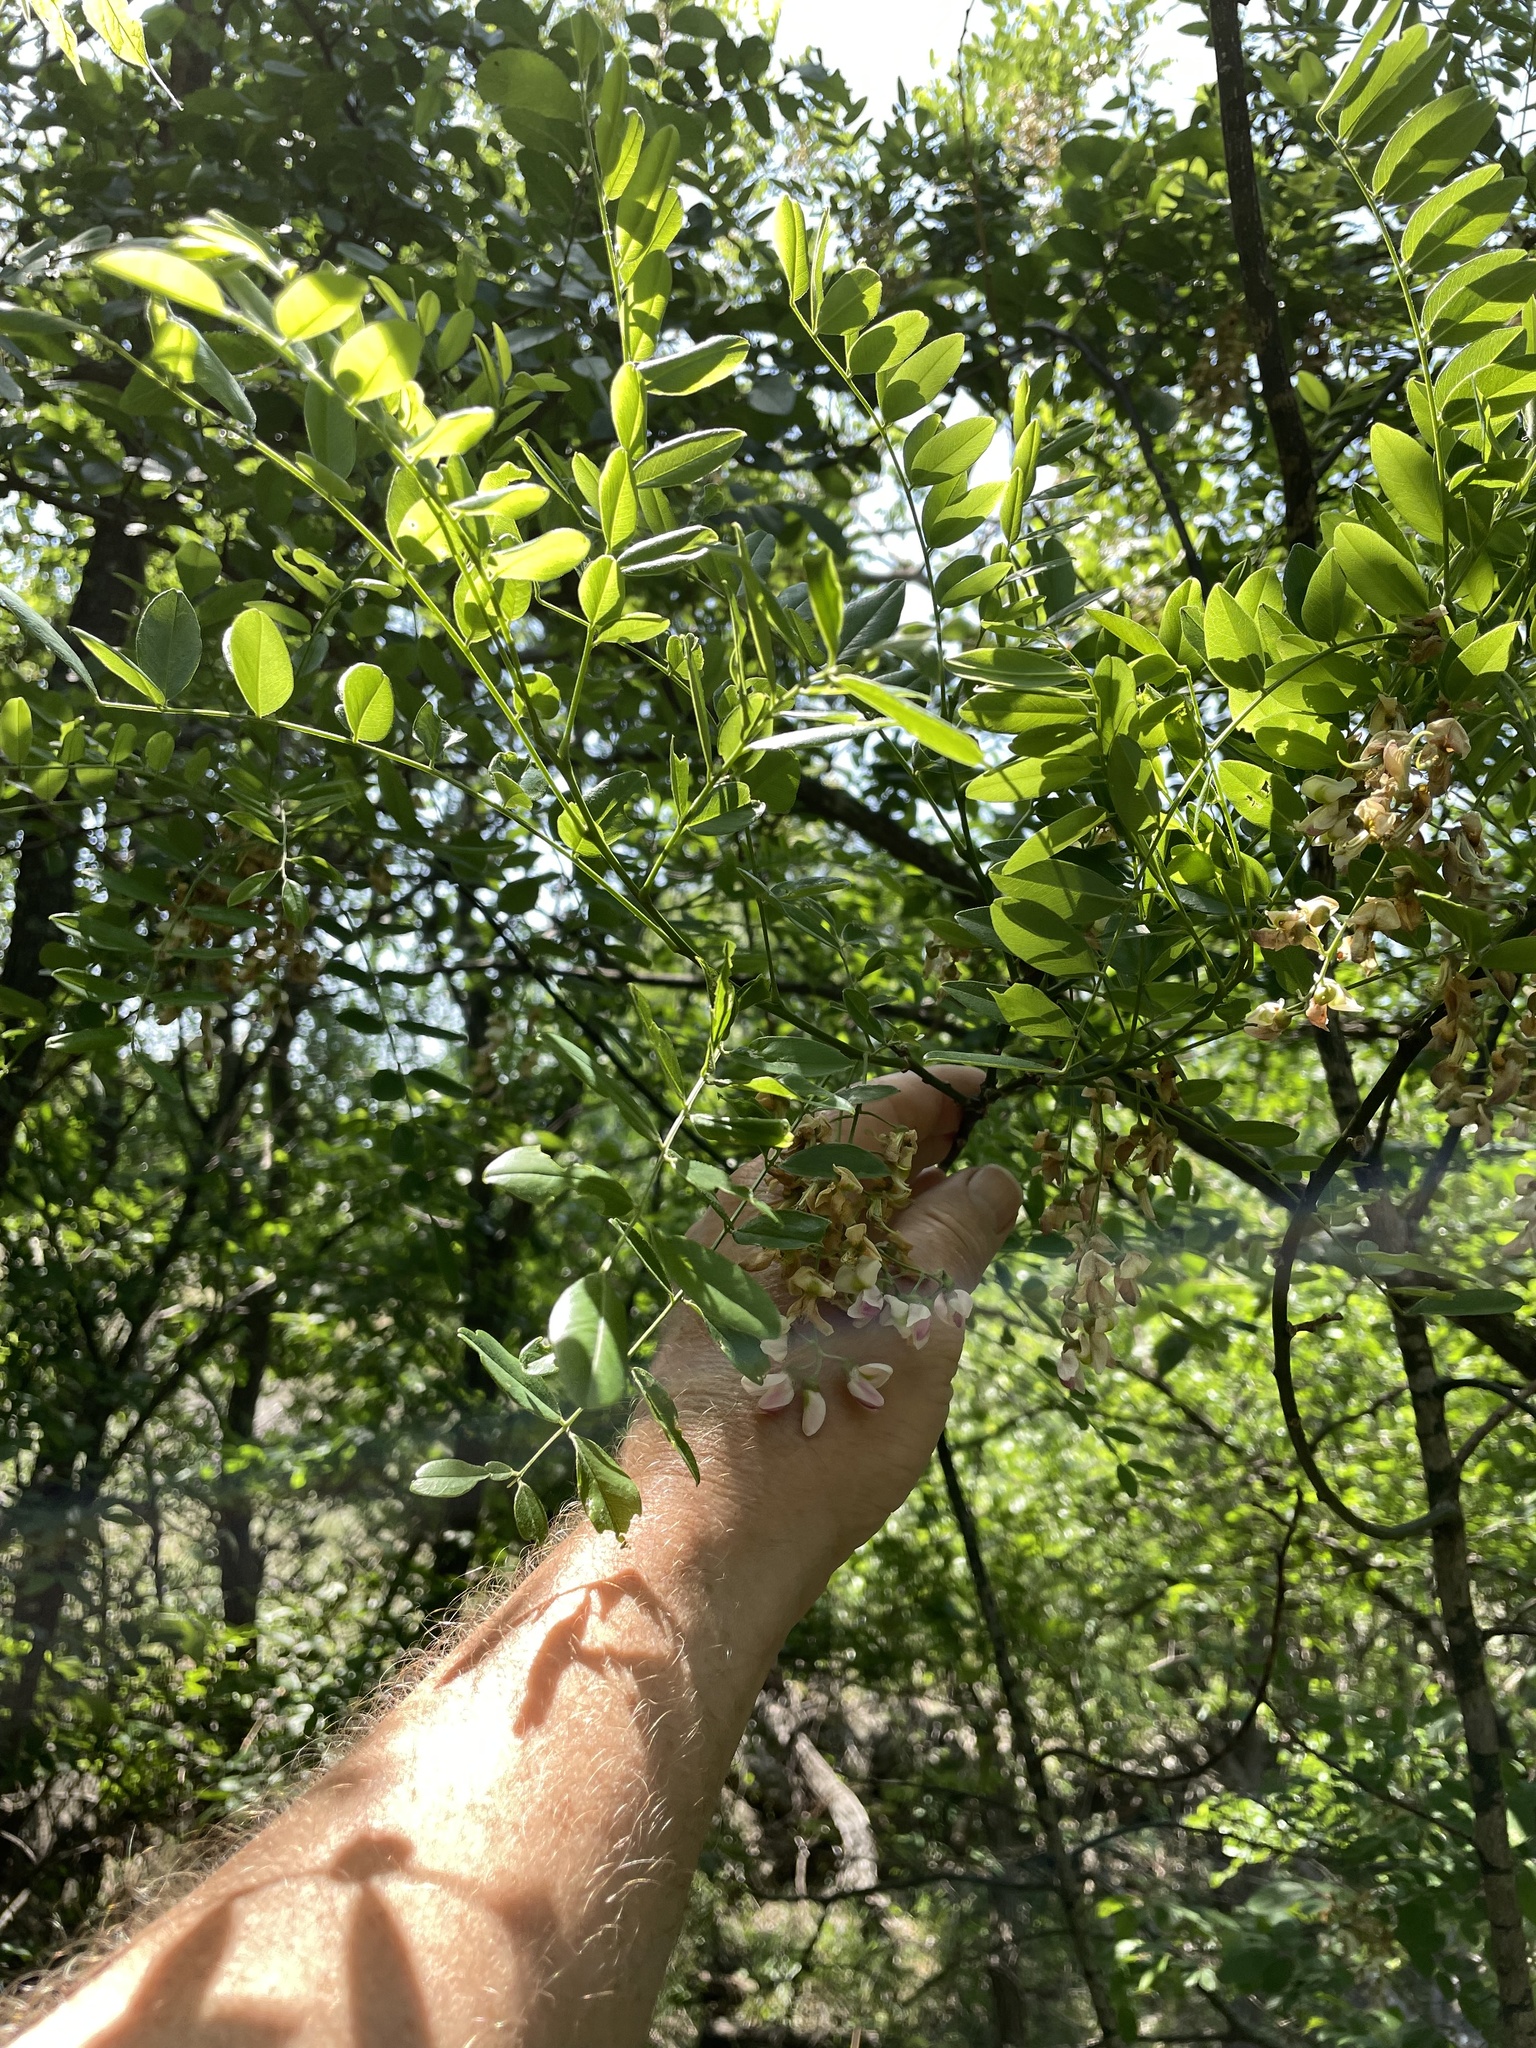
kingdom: Plantae
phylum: Tracheophyta
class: Magnoliopsida
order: Fabales
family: Fabaceae
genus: Styphnolobium
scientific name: Styphnolobium affine
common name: Texas sophora
